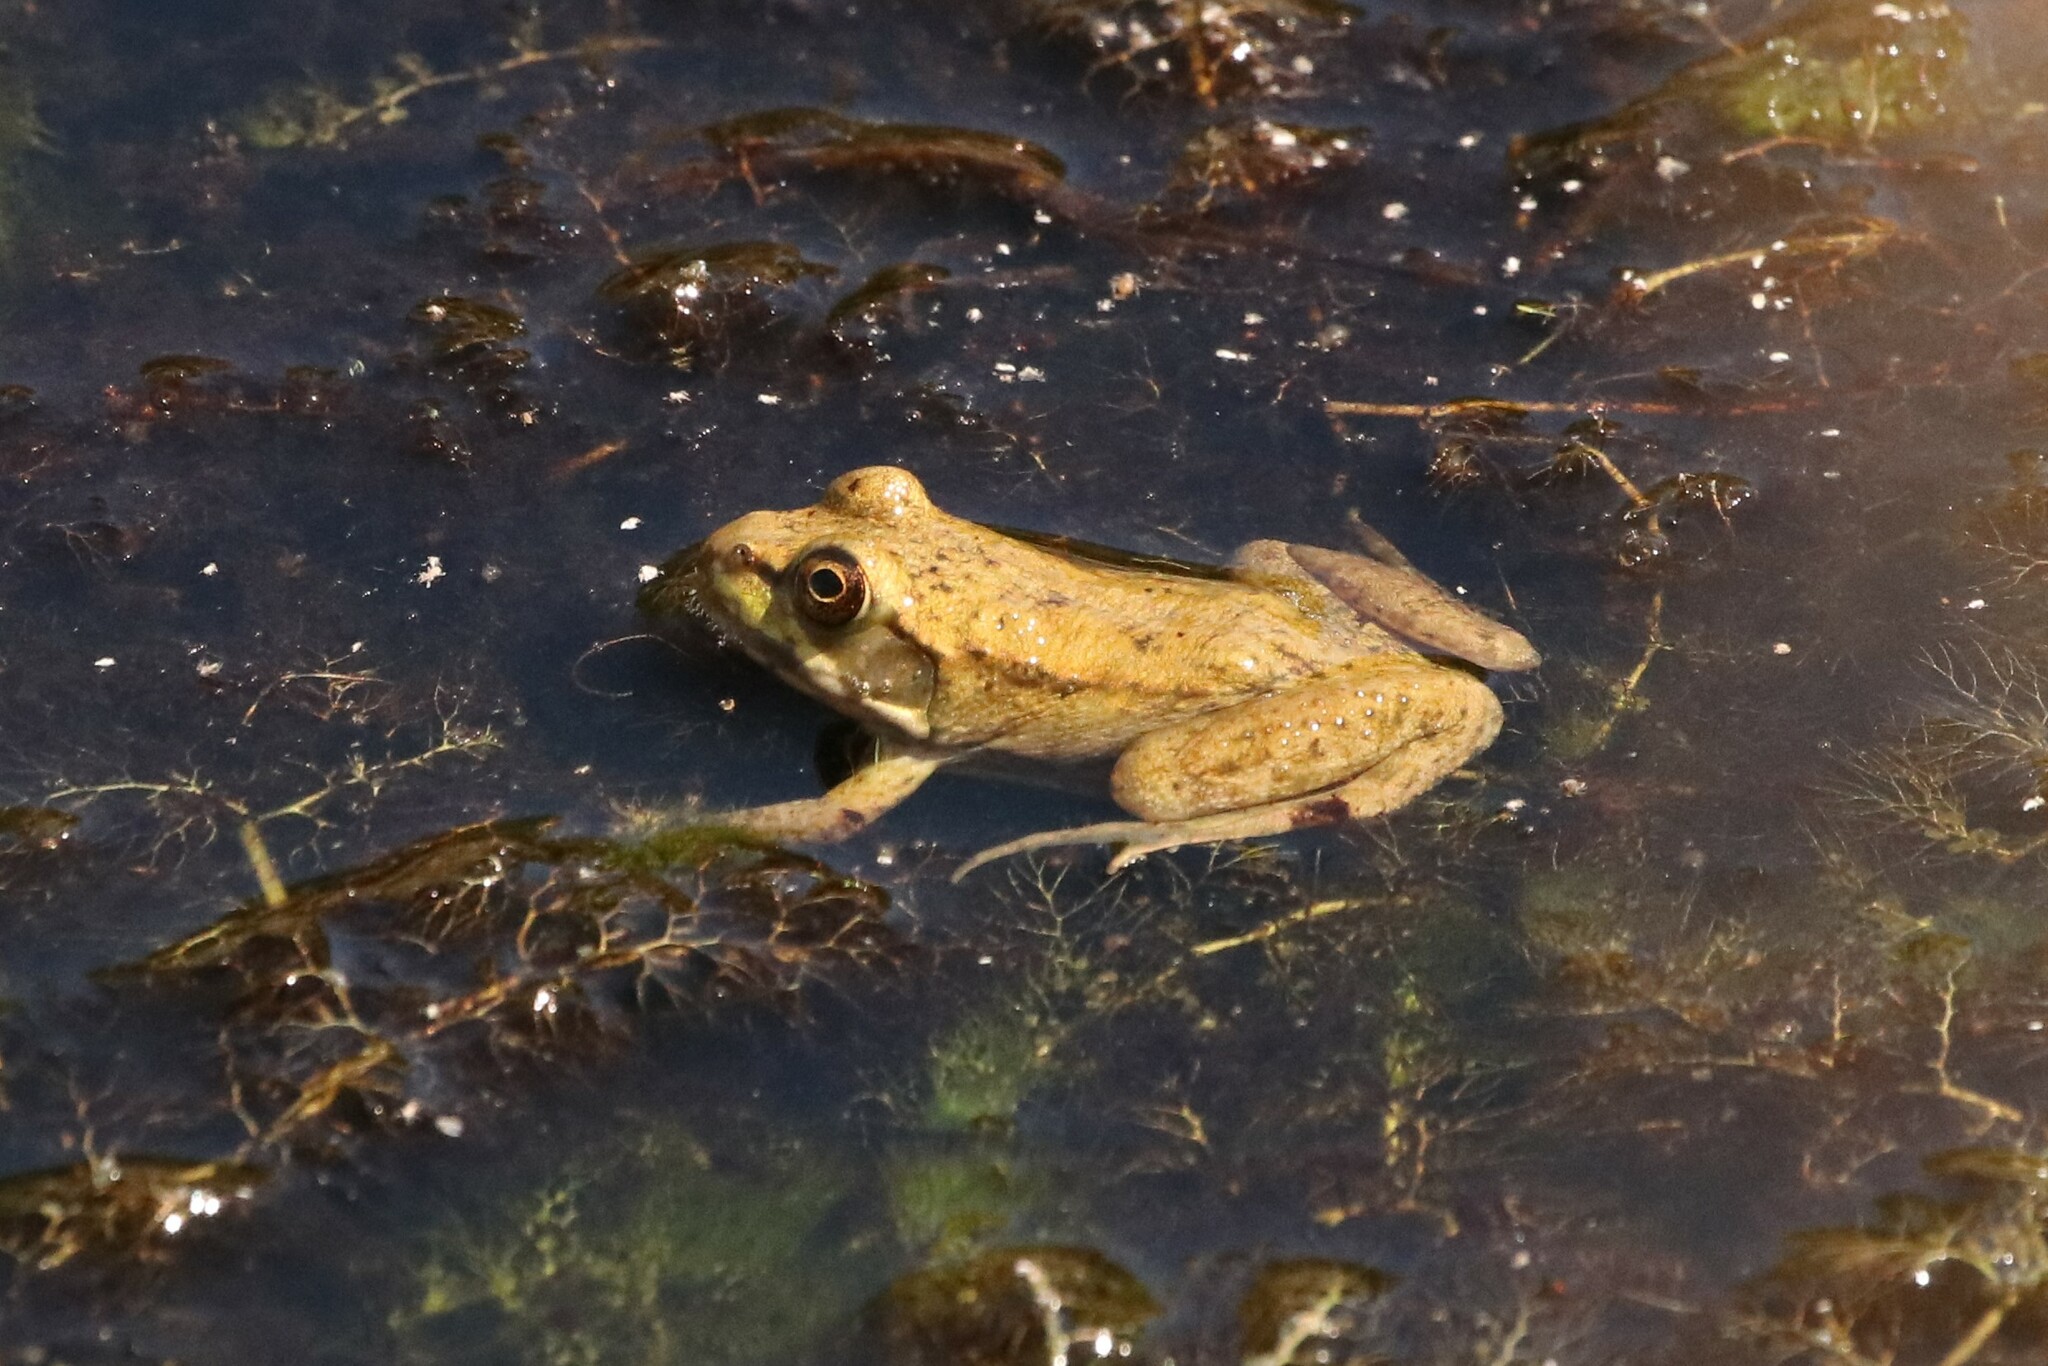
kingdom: Animalia
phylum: Chordata
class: Amphibia
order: Anura
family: Ranidae
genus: Lithobates
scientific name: Lithobates clamitans
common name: Green frog
